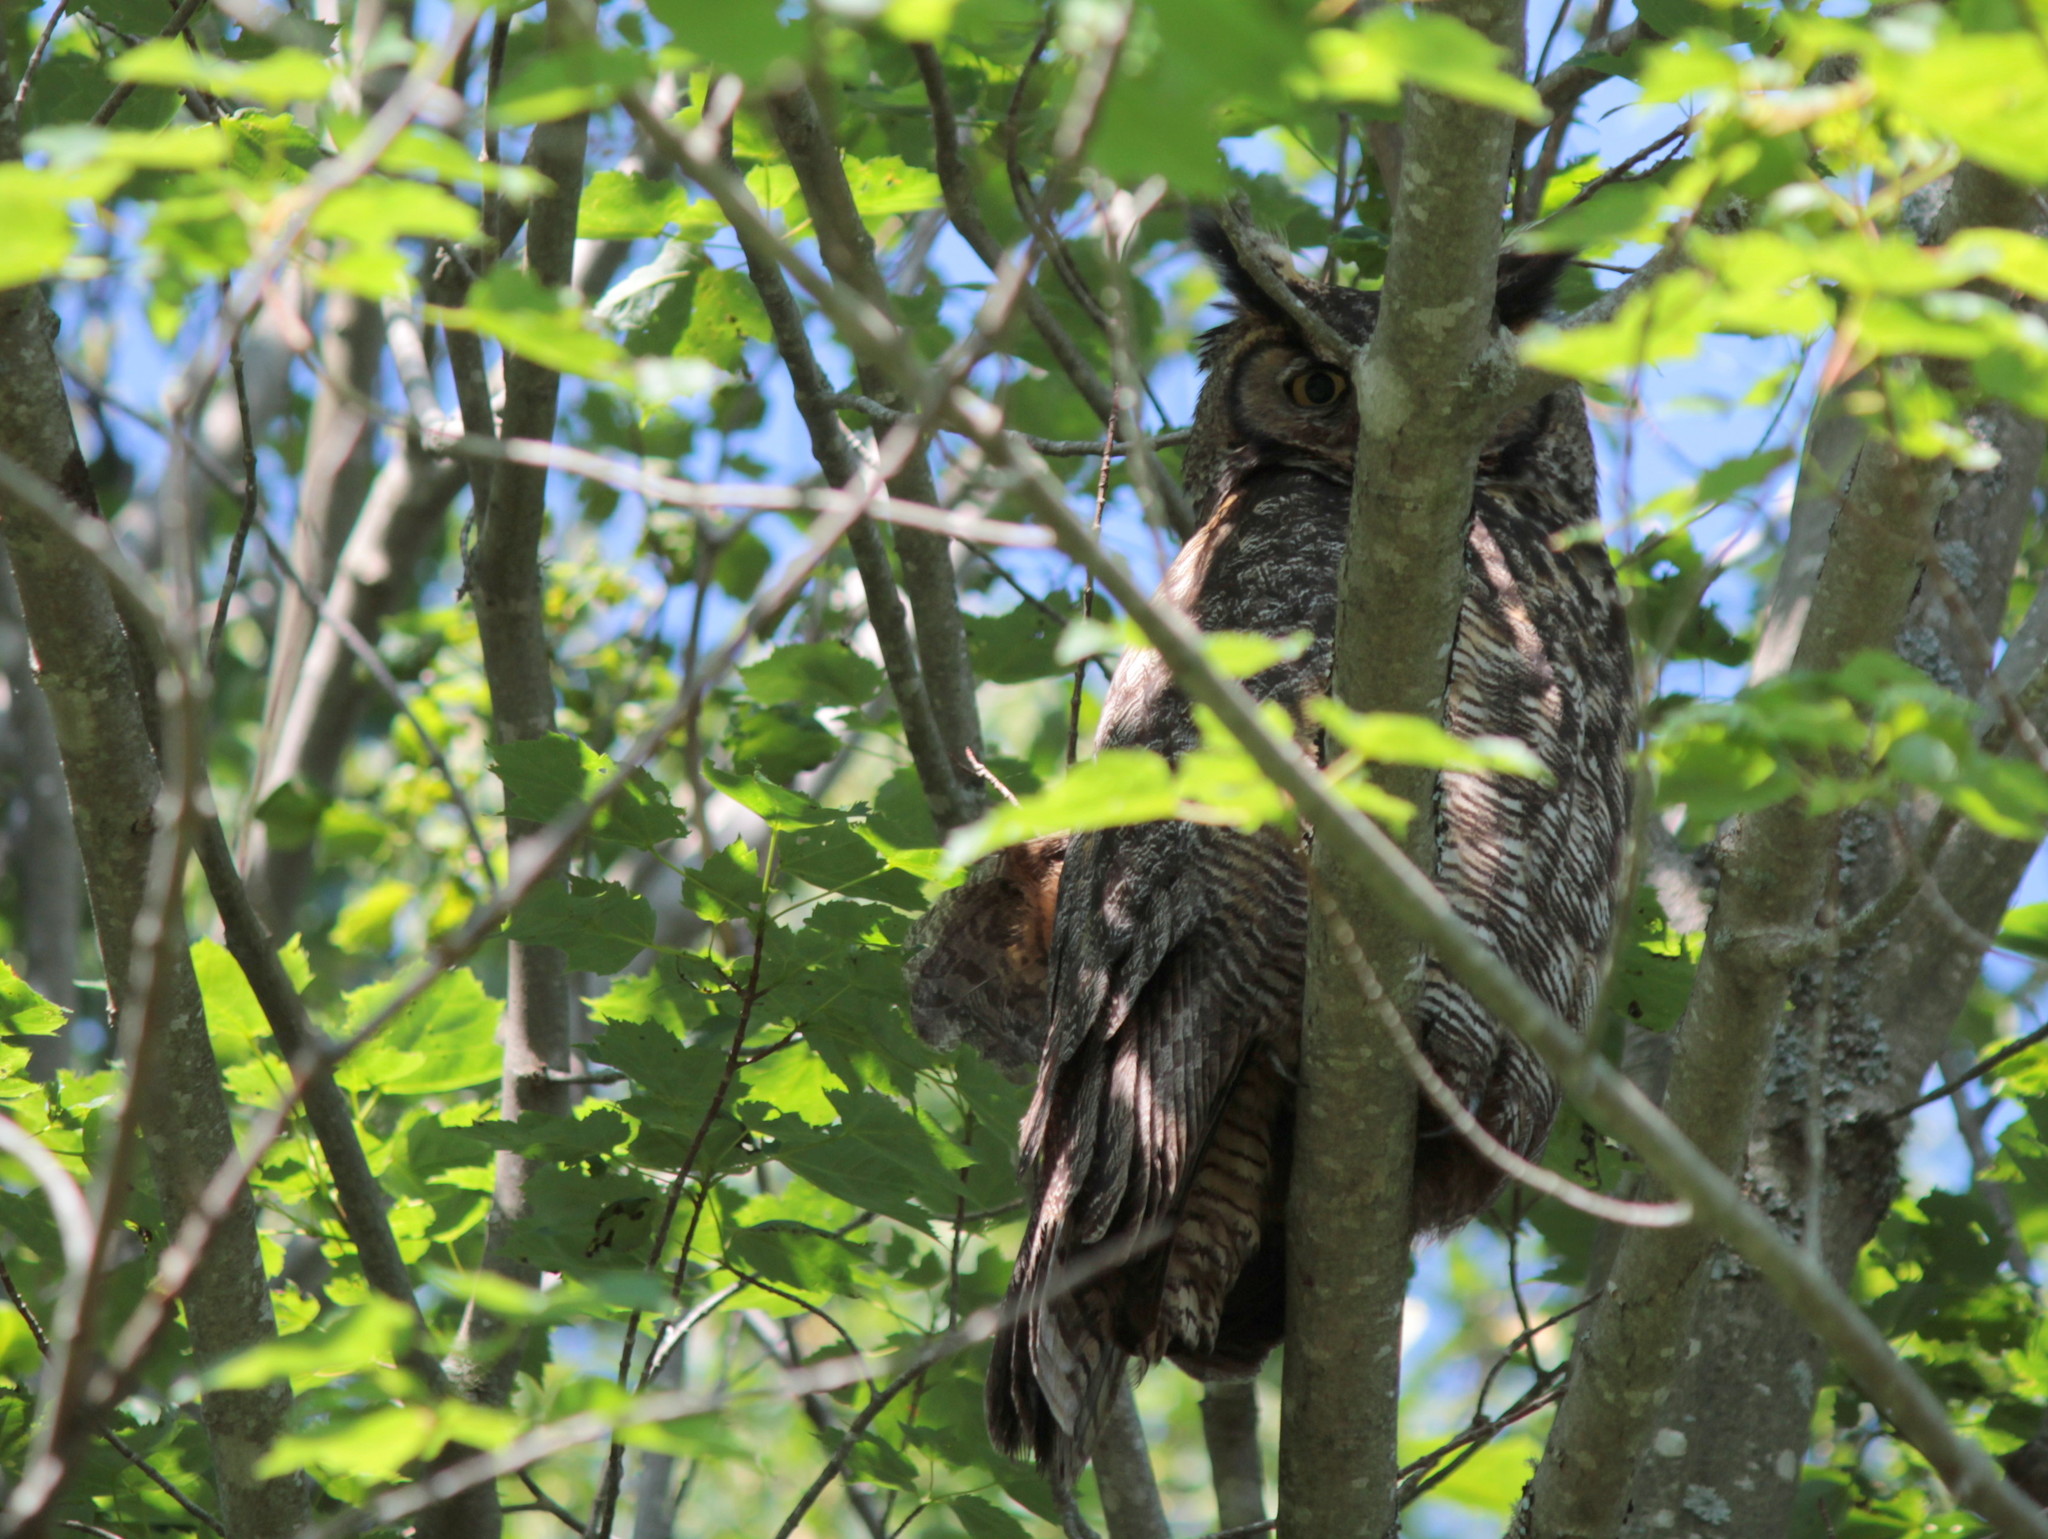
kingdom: Animalia
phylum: Chordata
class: Aves
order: Strigiformes
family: Strigidae
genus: Bubo
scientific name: Bubo virginianus
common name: Great horned owl
